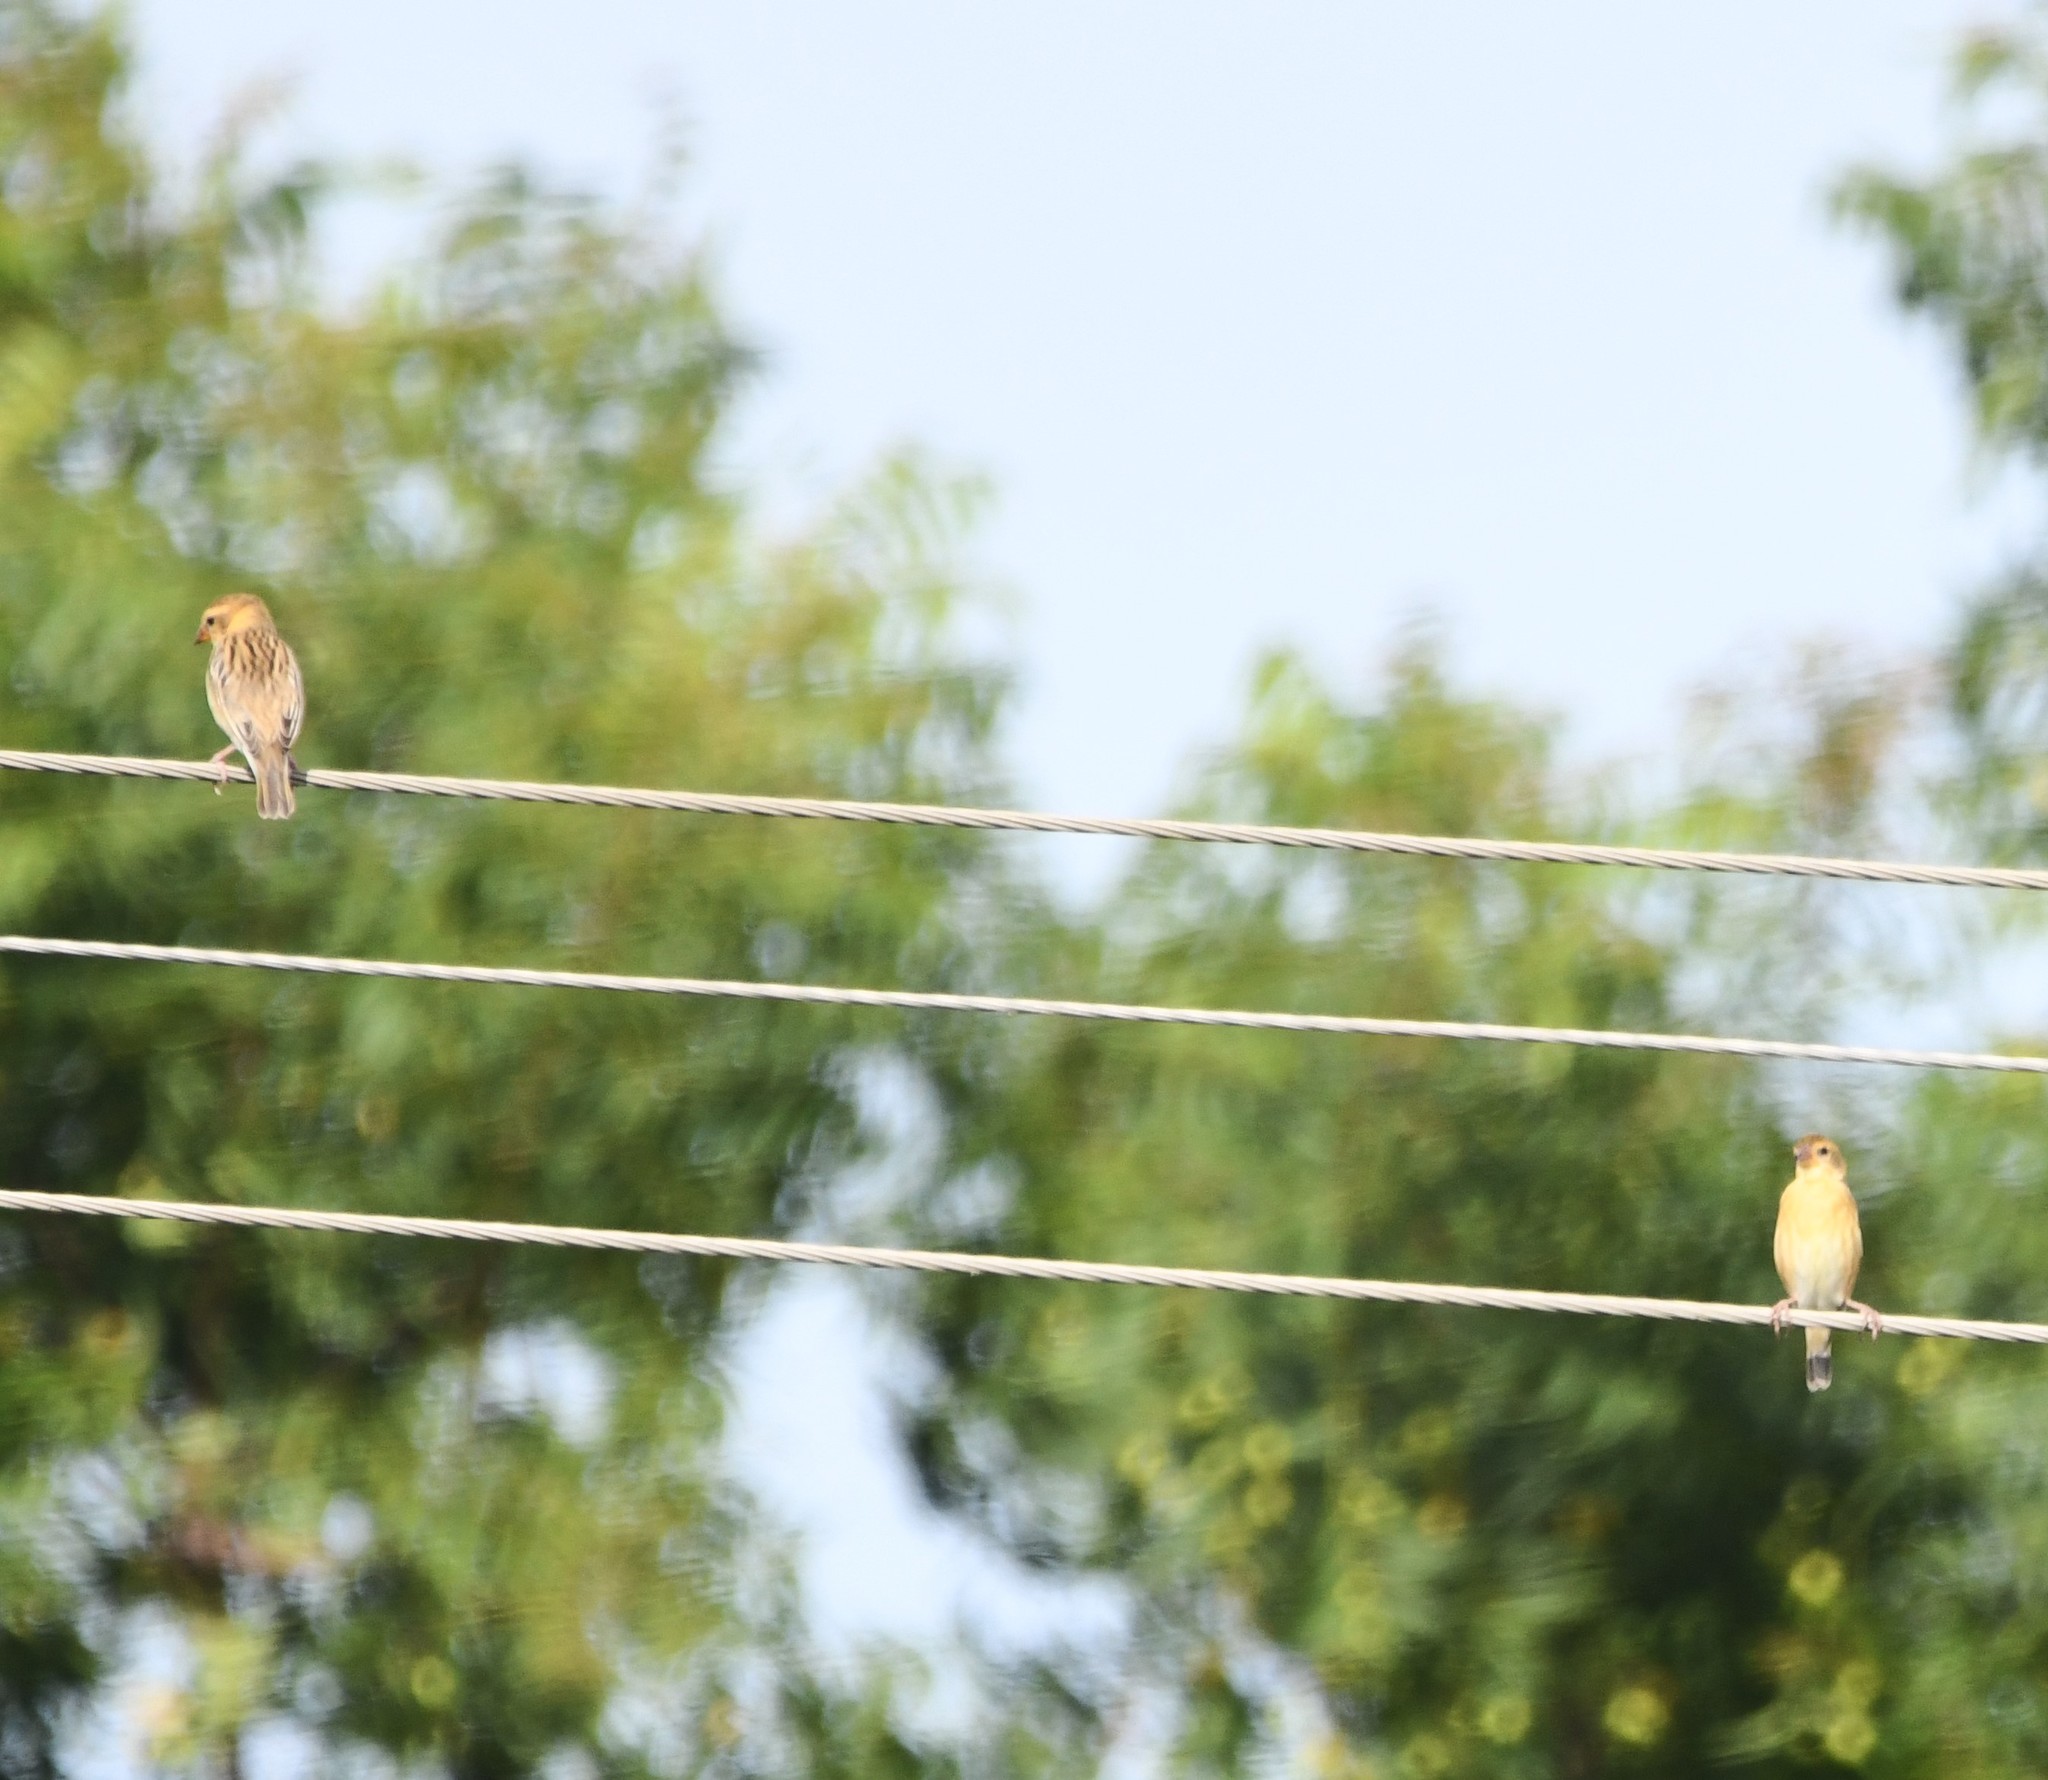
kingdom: Animalia
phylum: Chordata
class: Aves
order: Passeriformes
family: Ploceidae
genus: Ploceus
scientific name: Ploceus philippinus
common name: Baya weaver
